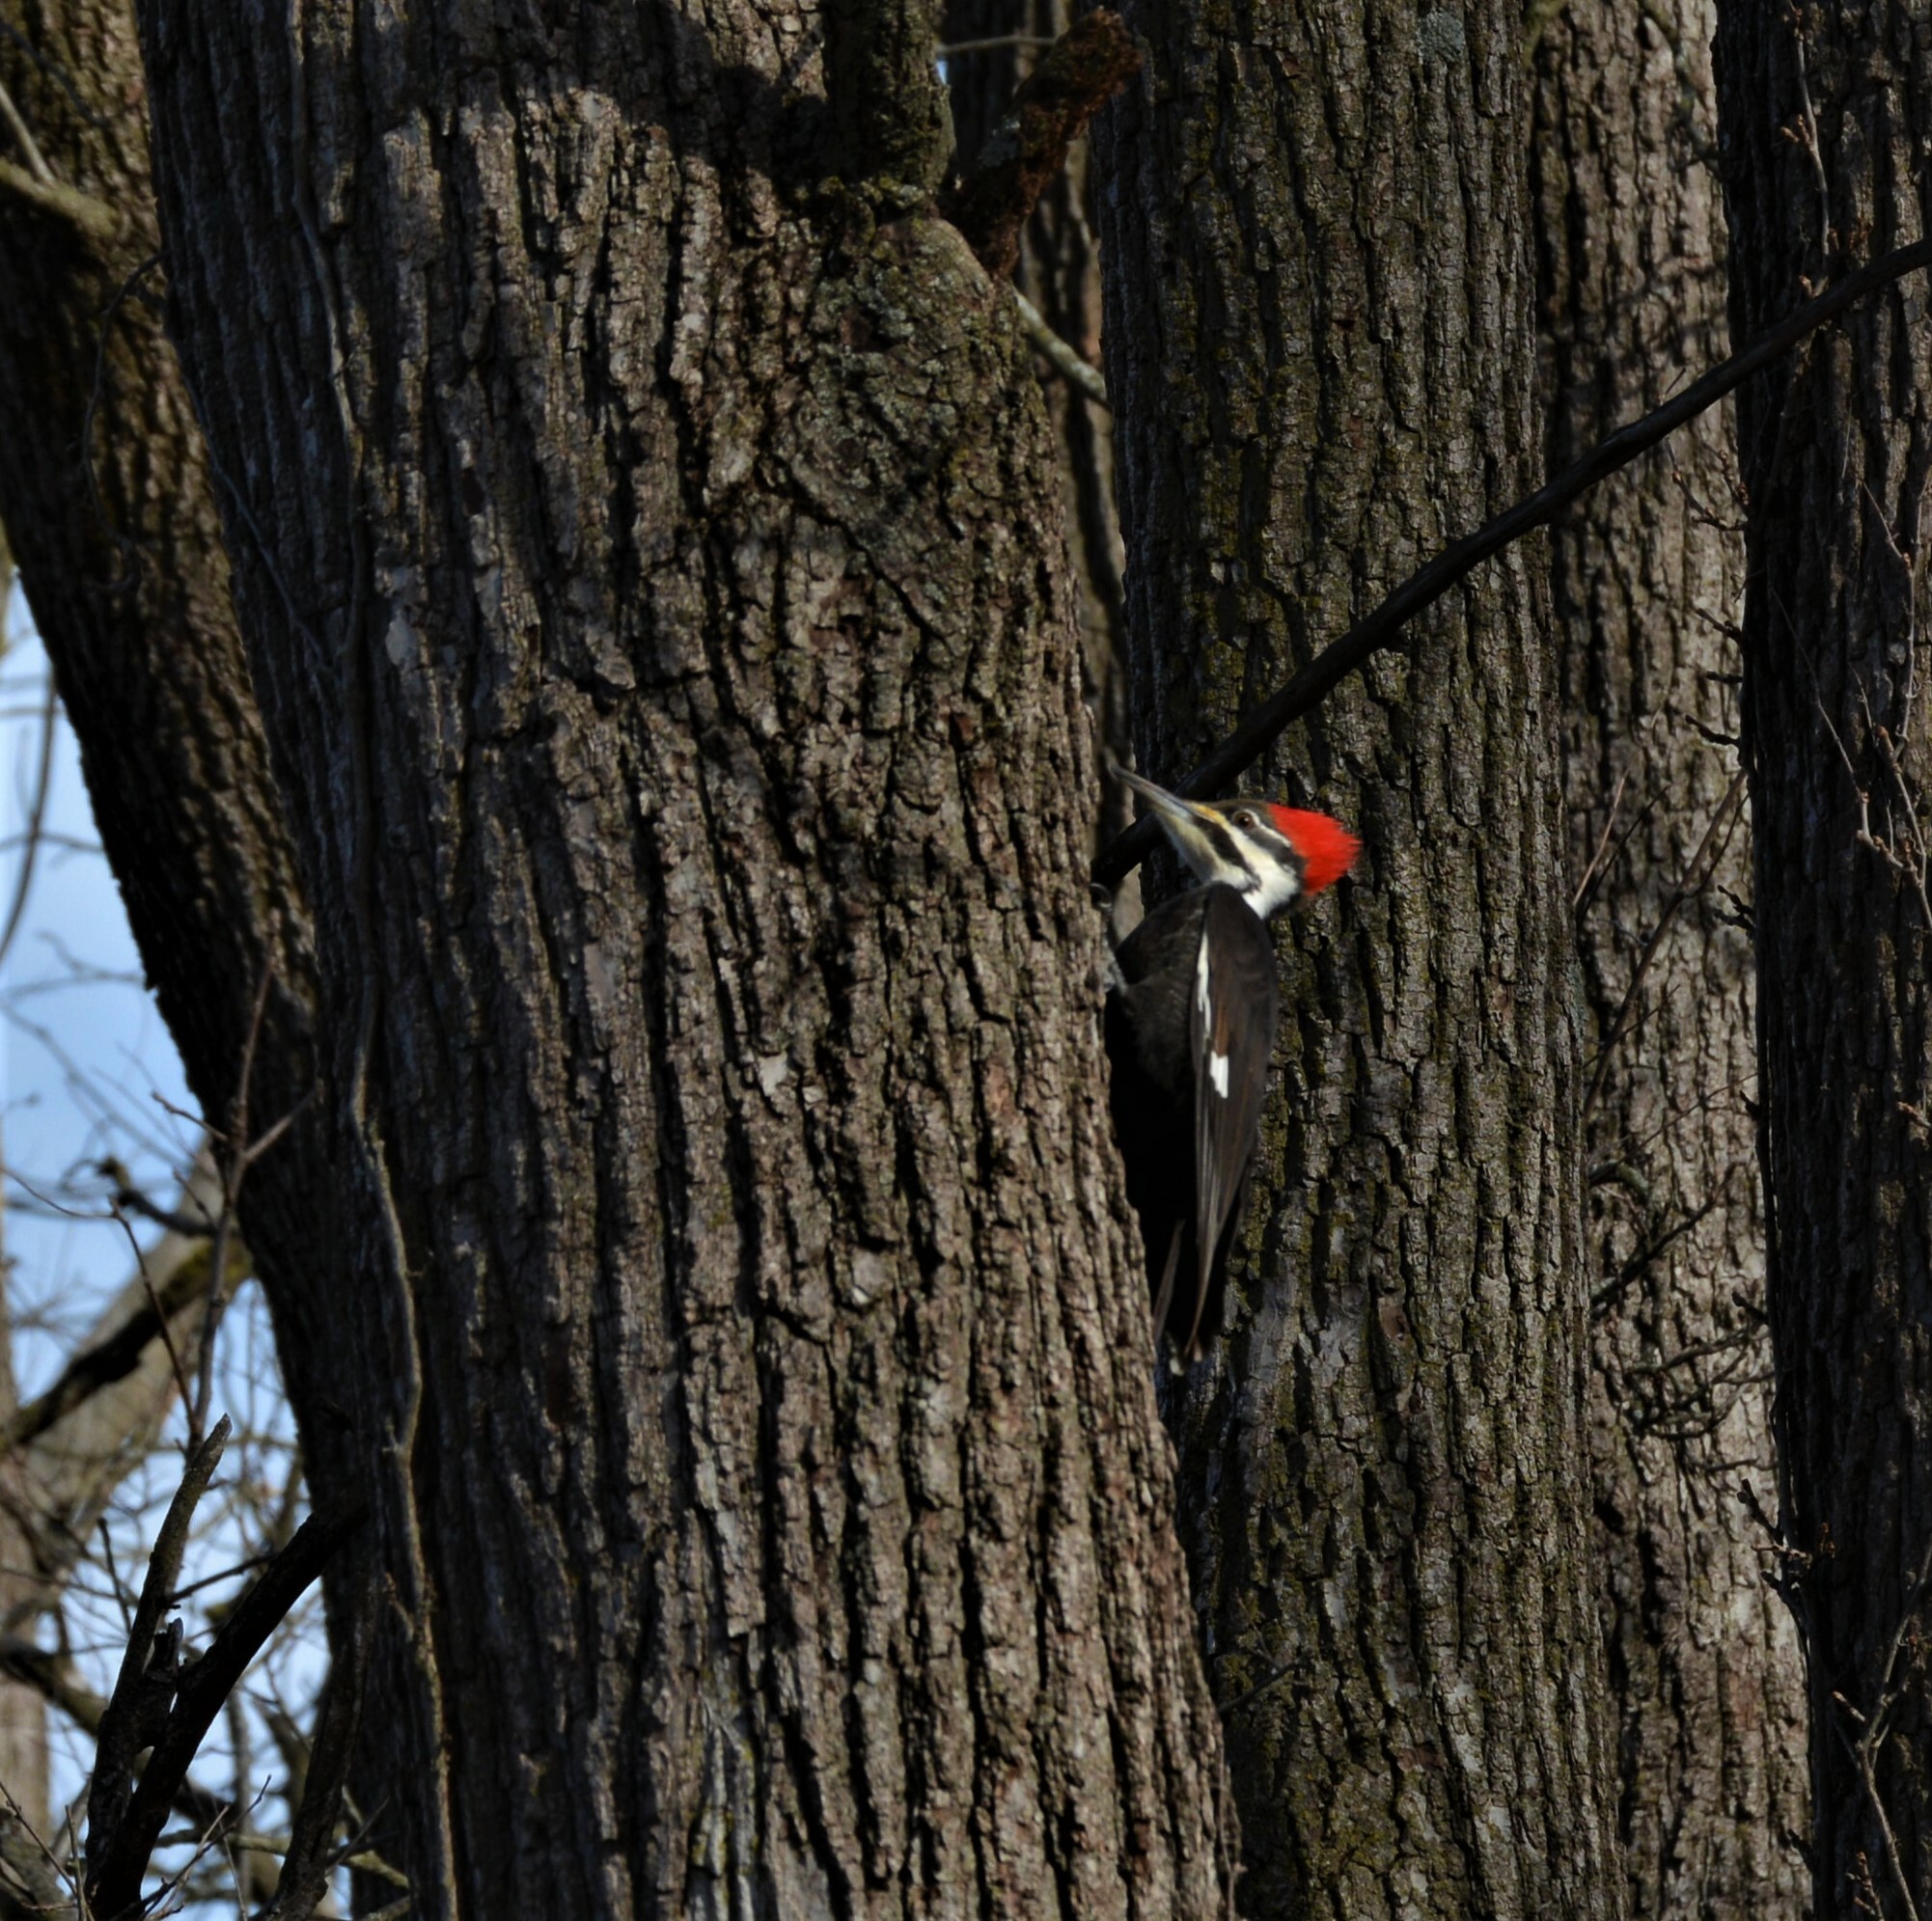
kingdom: Animalia
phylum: Chordata
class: Aves
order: Piciformes
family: Picidae
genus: Dryocopus
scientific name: Dryocopus pileatus
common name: Pileated woodpecker
